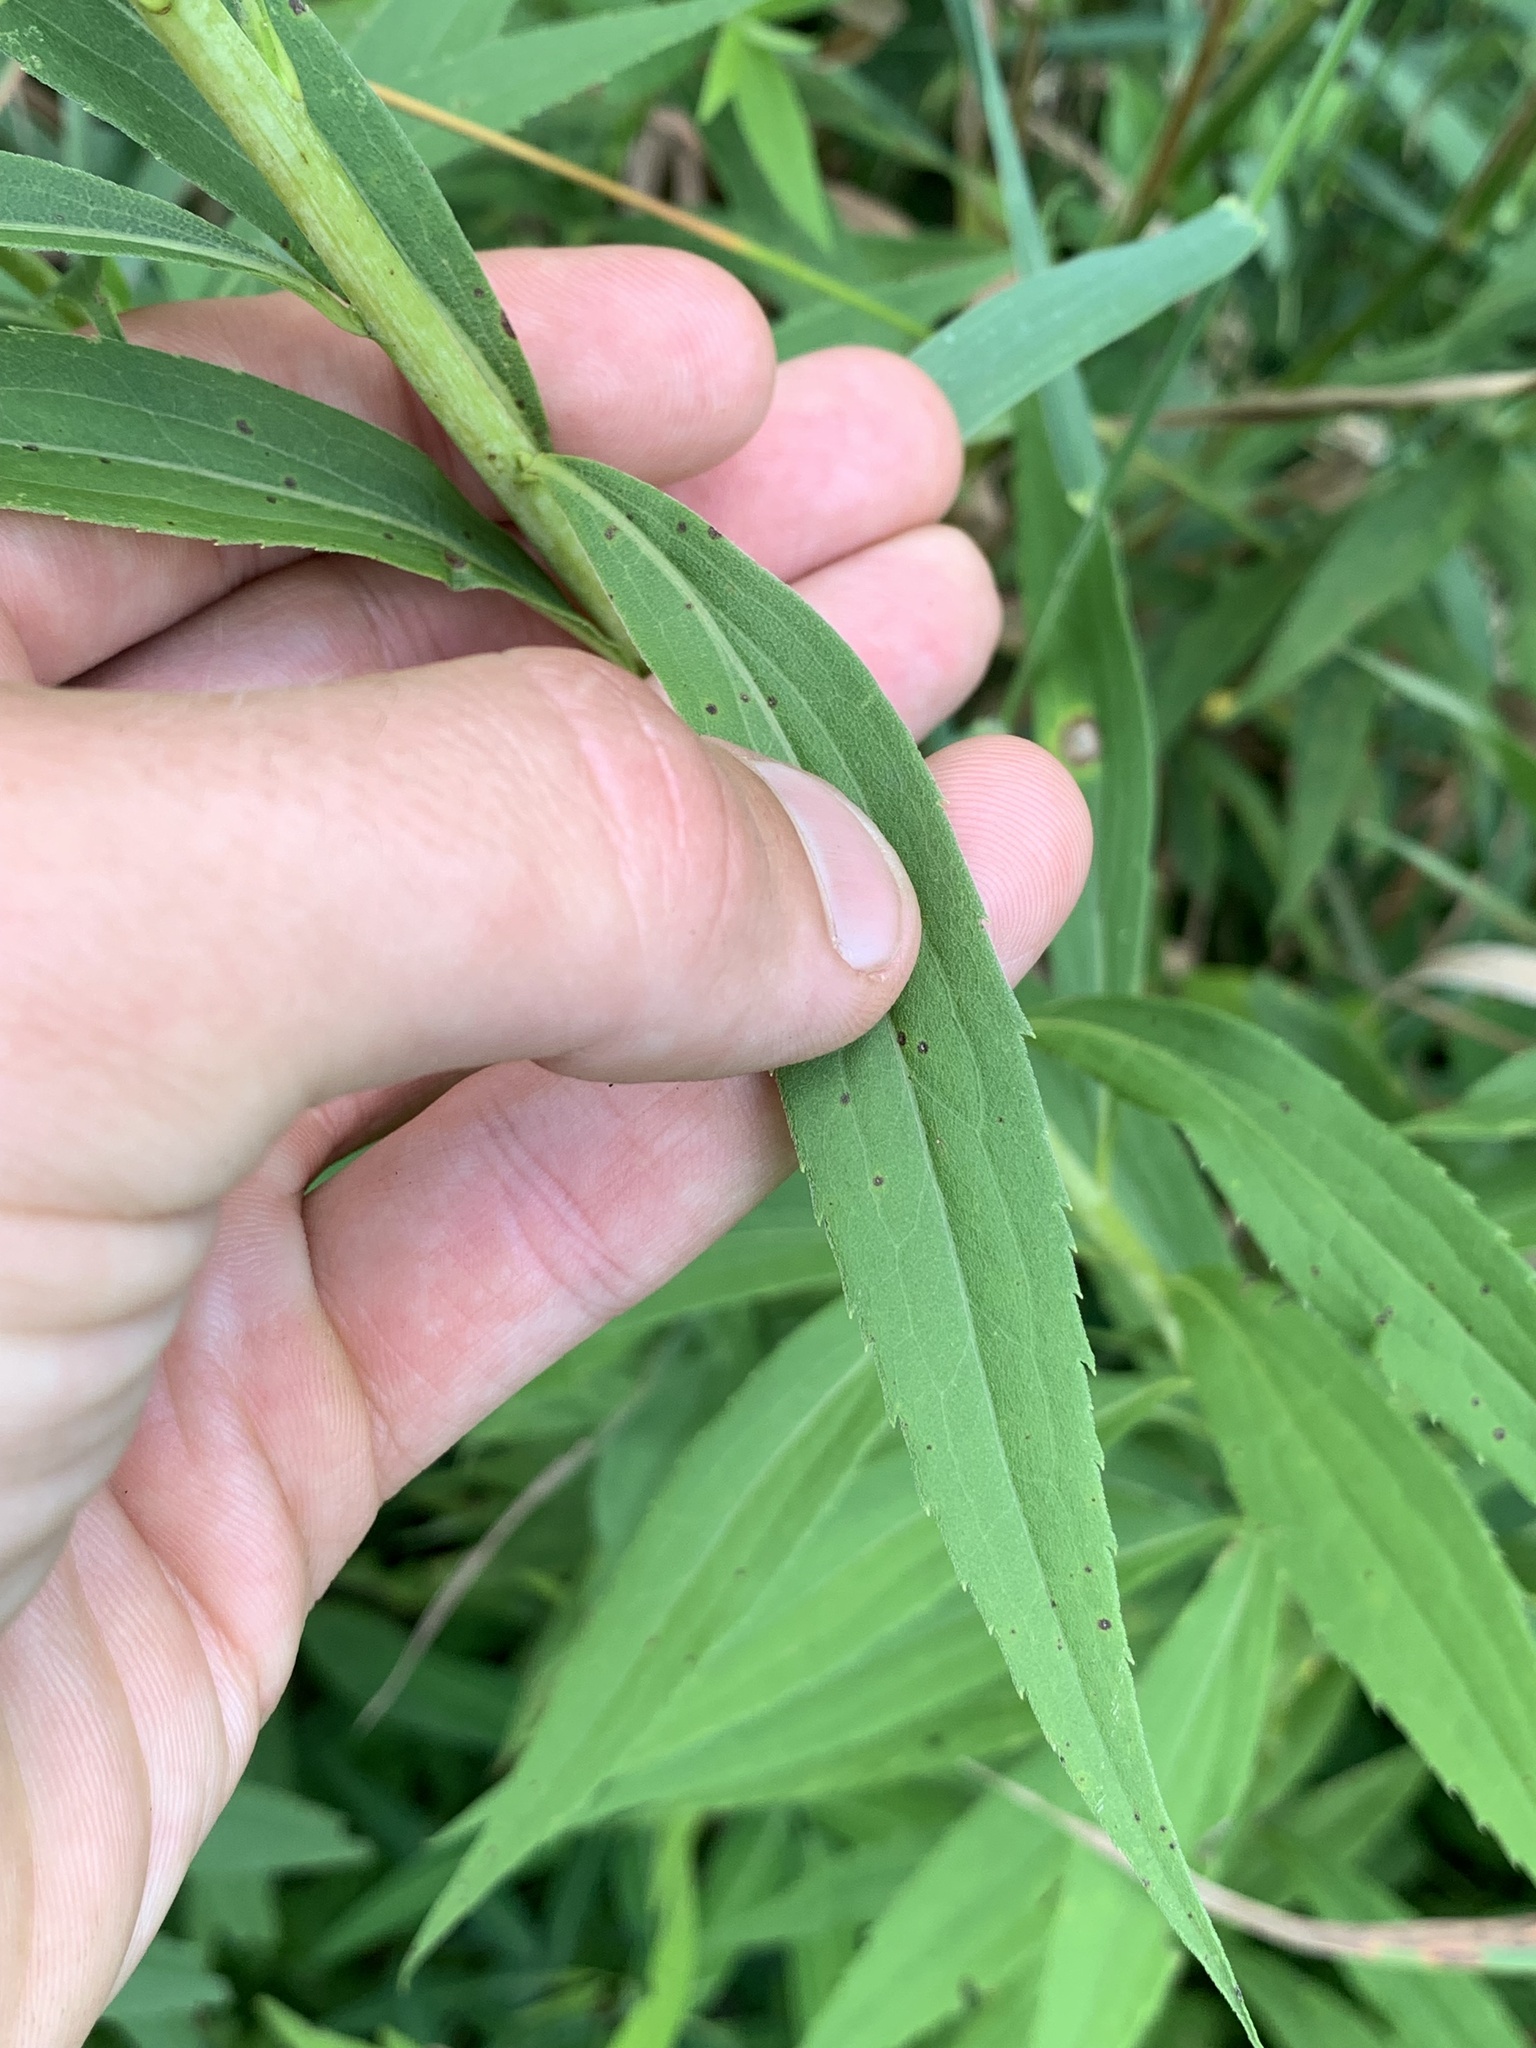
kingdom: Plantae
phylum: Tracheophyta
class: Magnoliopsida
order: Asterales
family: Asteraceae
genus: Solidago
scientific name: Solidago juncea
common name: Early goldenrod
